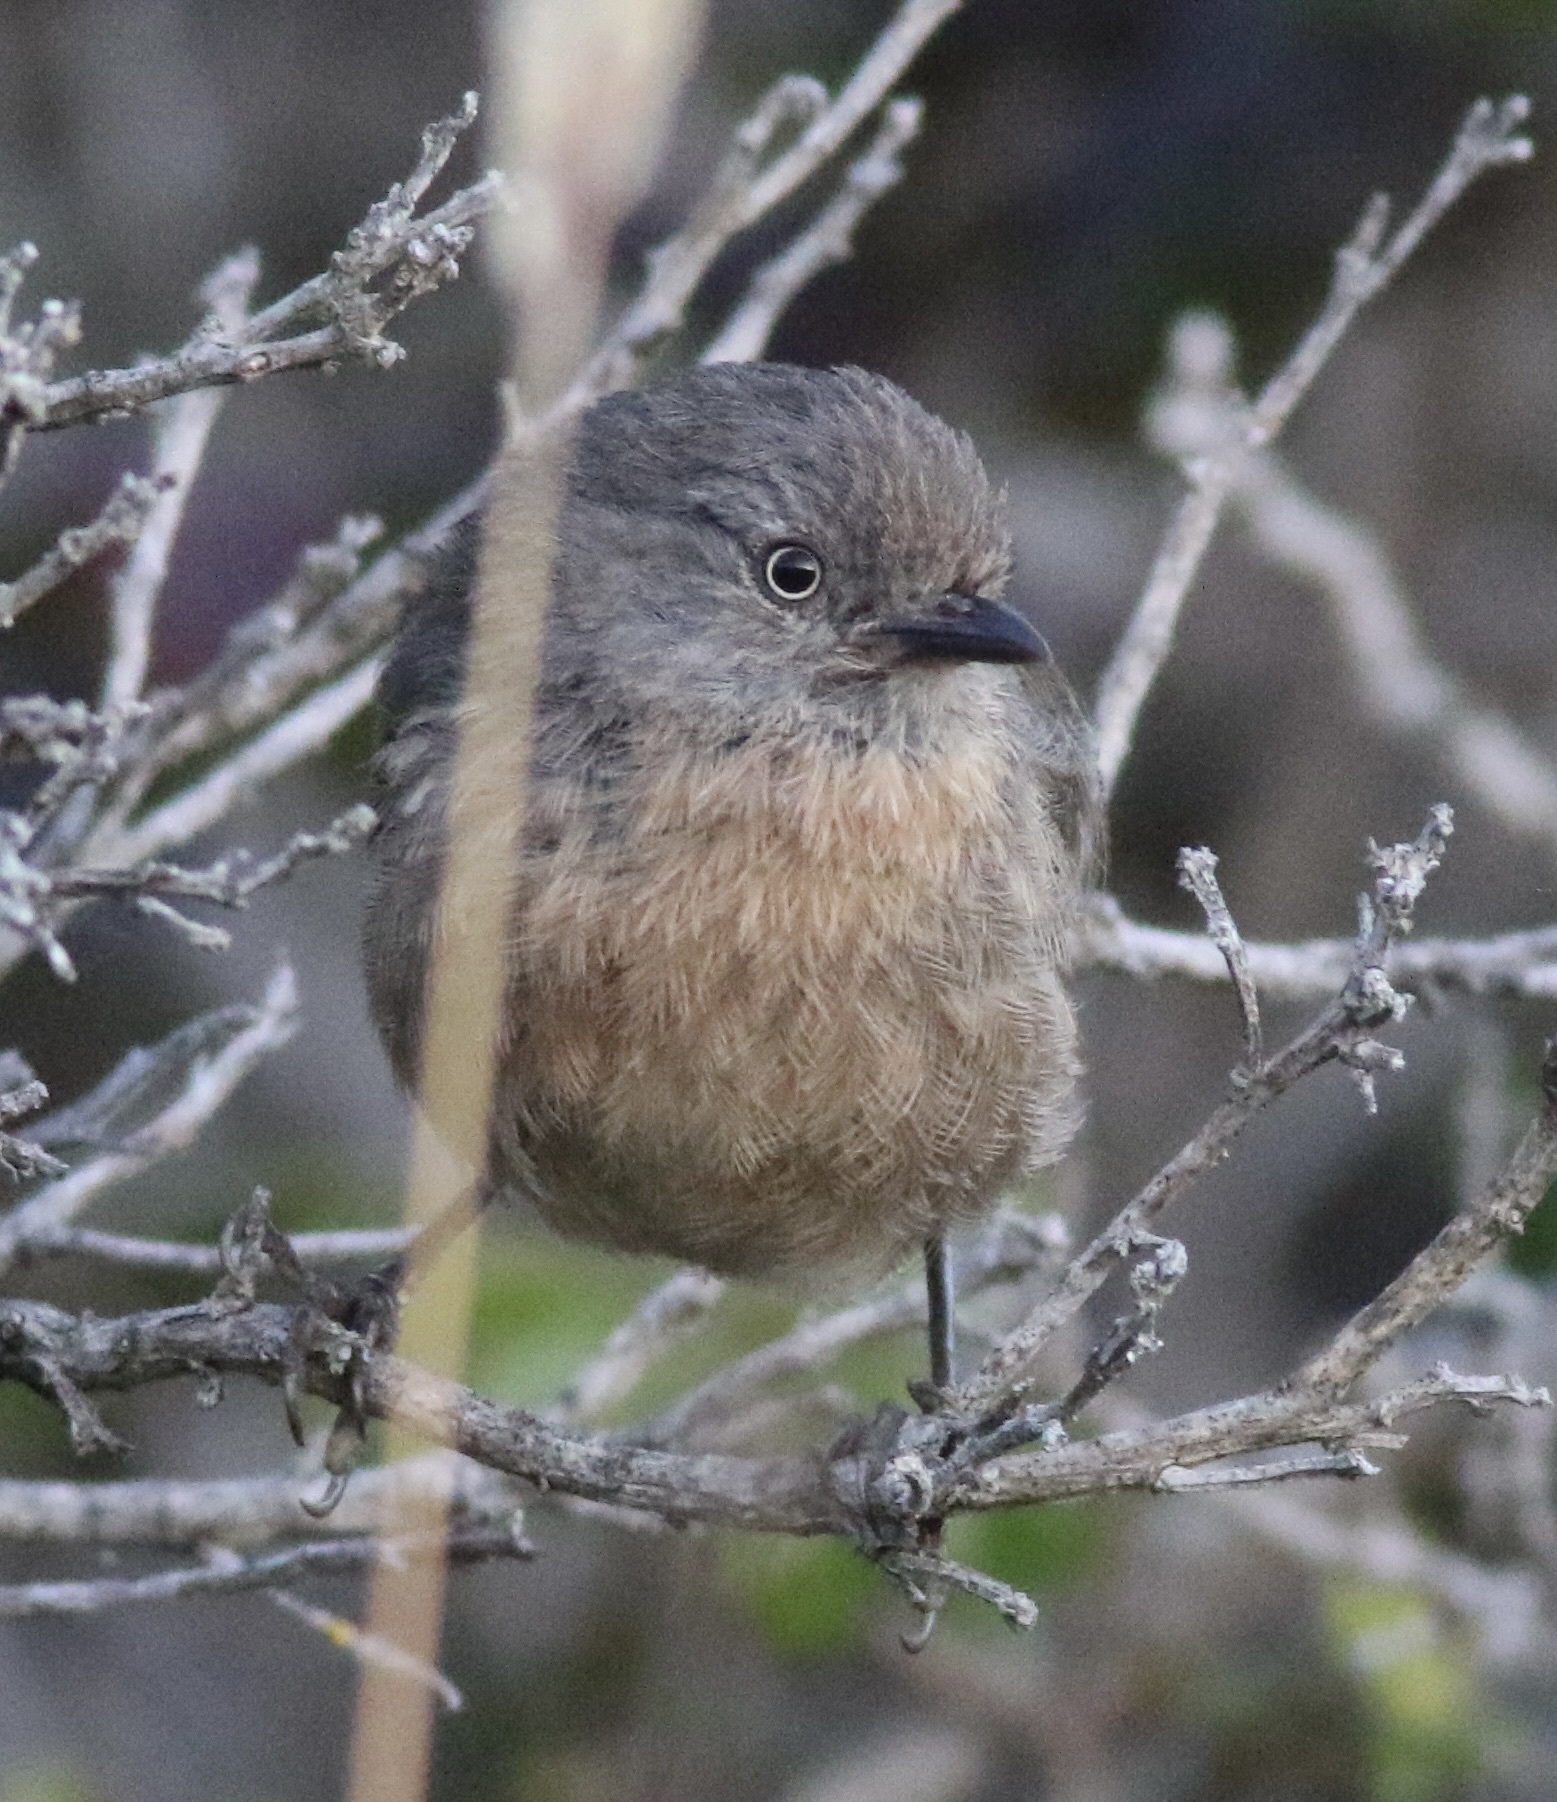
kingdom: Animalia
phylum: Chordata
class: Aves
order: Passeriformes
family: Sylviidae
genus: Chamaea
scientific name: Chamaea fasciata
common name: Wrentit
